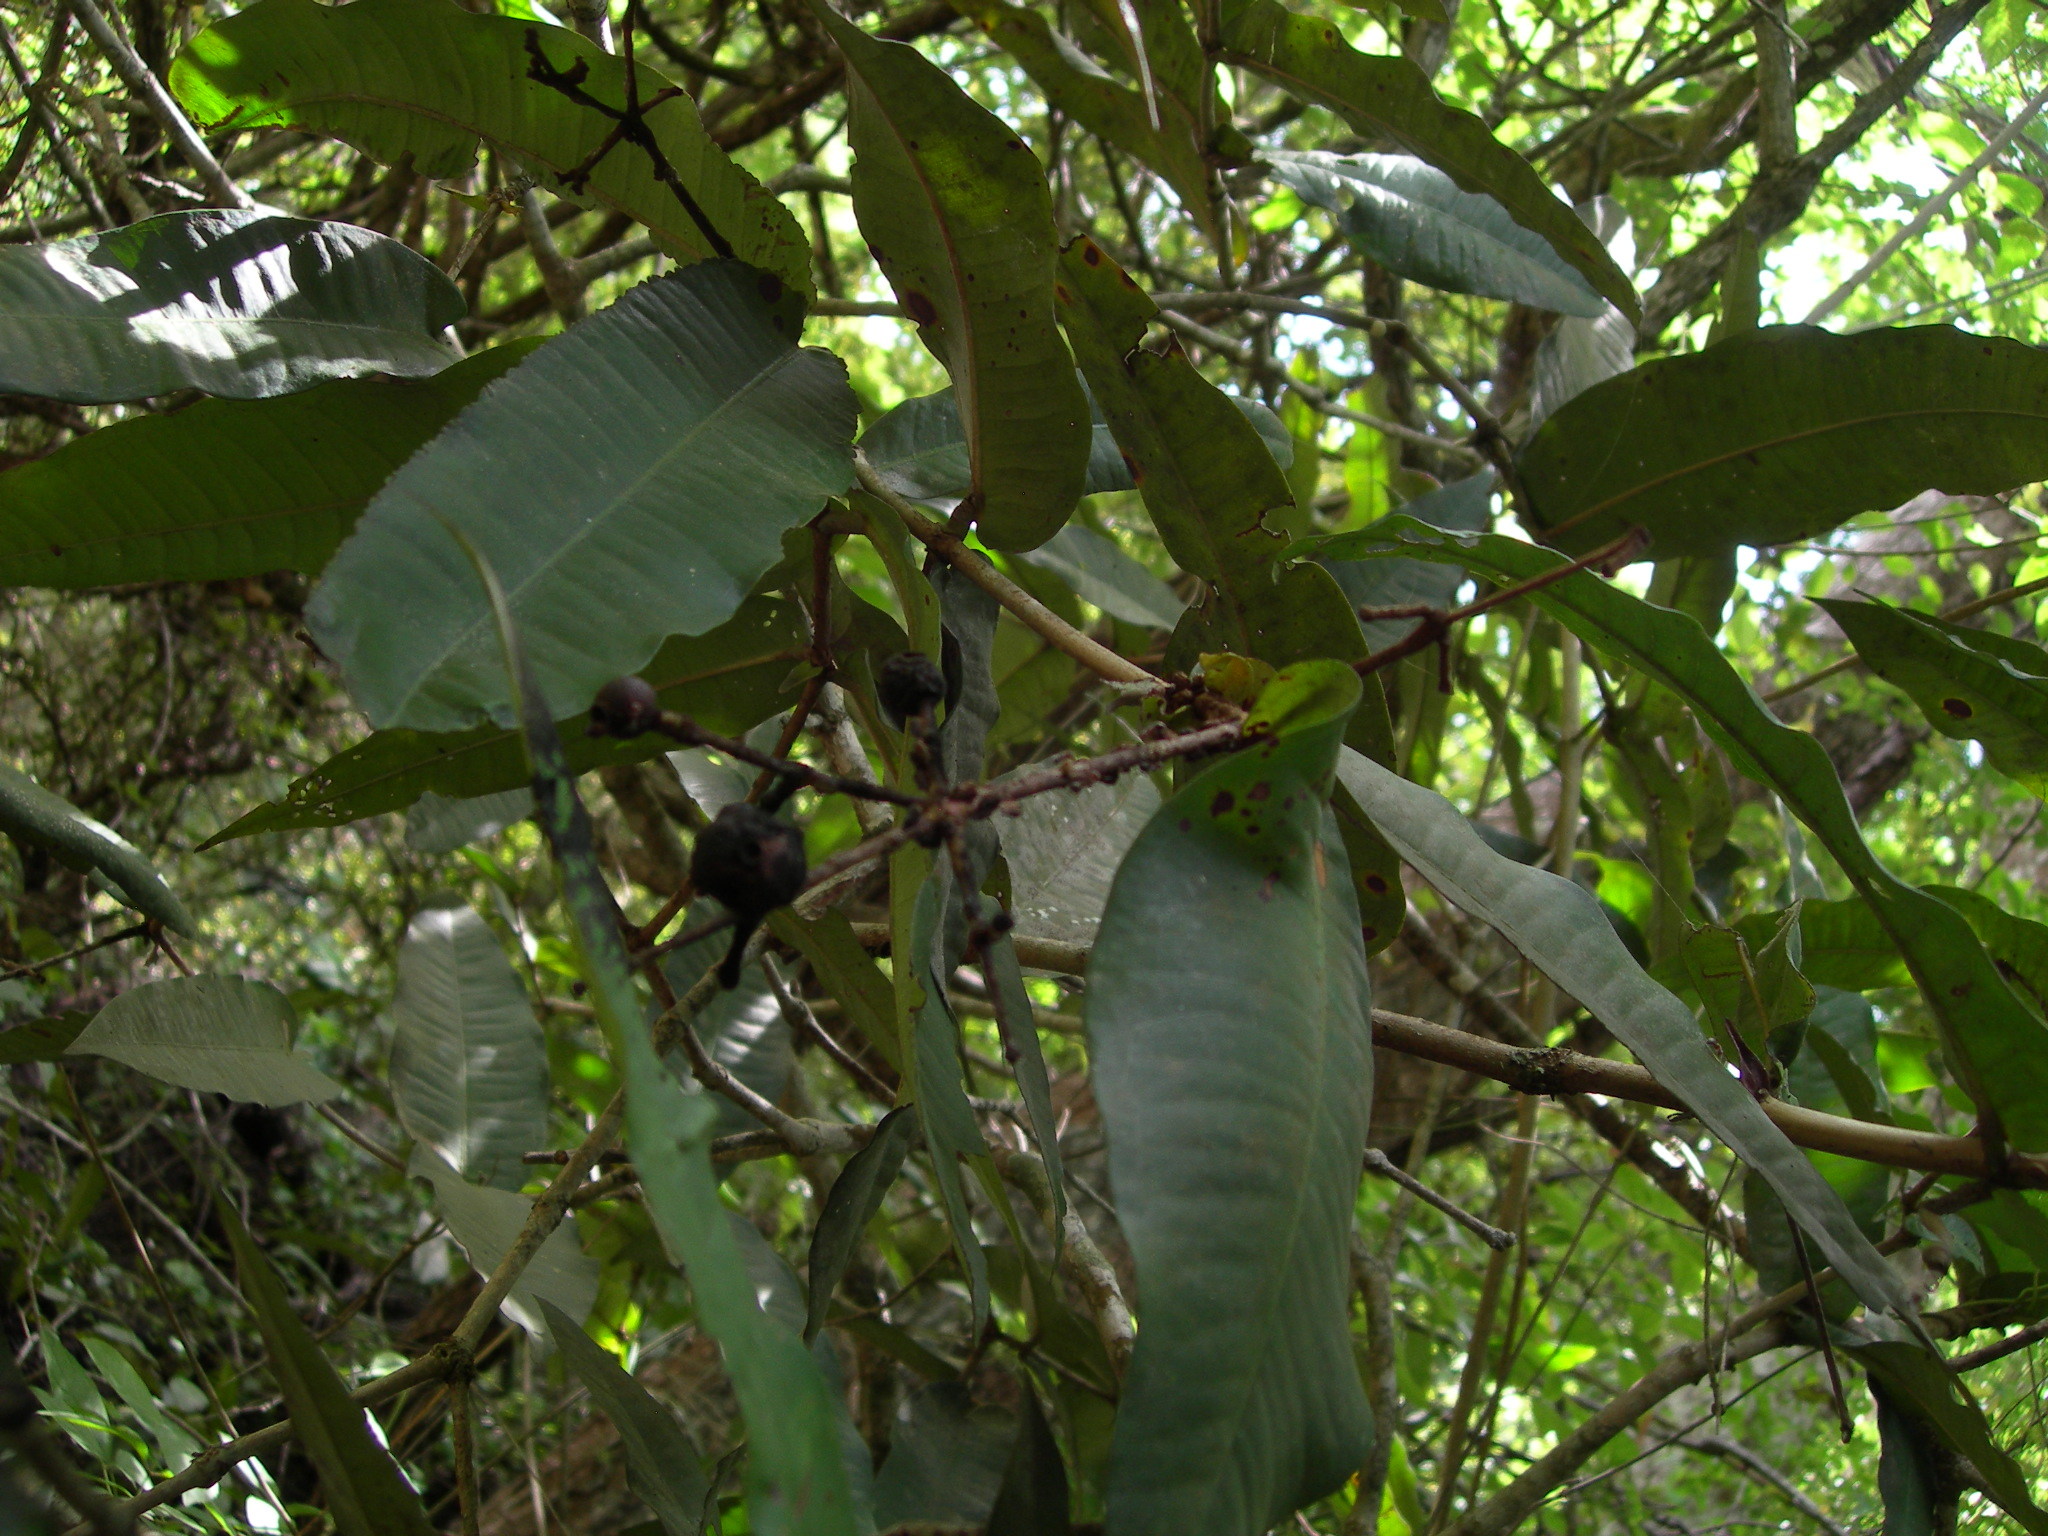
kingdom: Plantae
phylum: Tracheophyta
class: Magnoliopsida
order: Myrtales
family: Myrtaceae
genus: Myrcia
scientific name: Myrcia chiapensis
